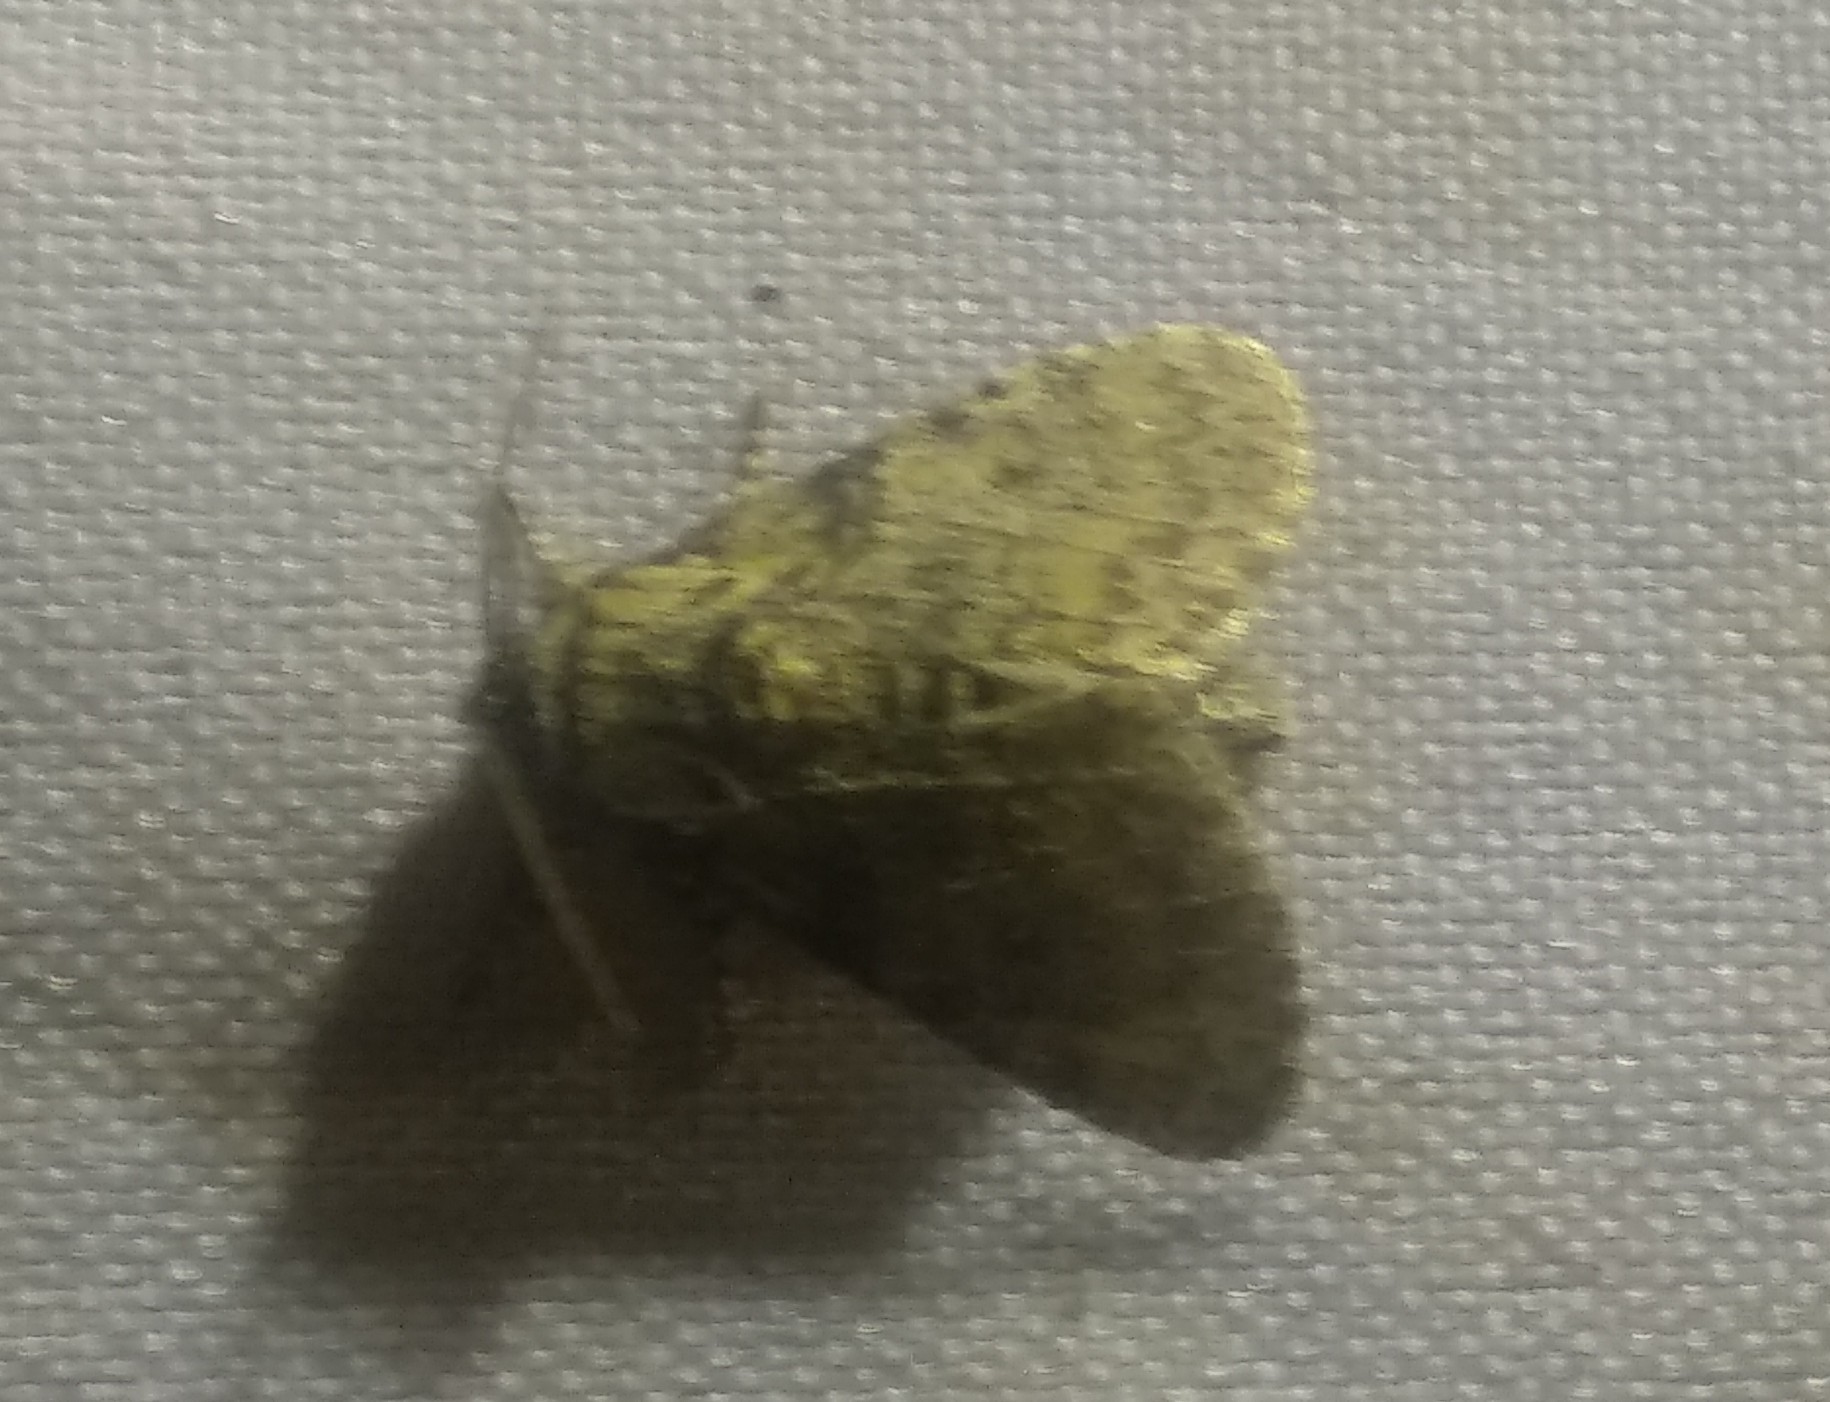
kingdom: Animalia
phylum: Arthropoda
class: Insecta
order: Lepidoptera
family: Noctuidae
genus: Raphia
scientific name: Raphia hybris
